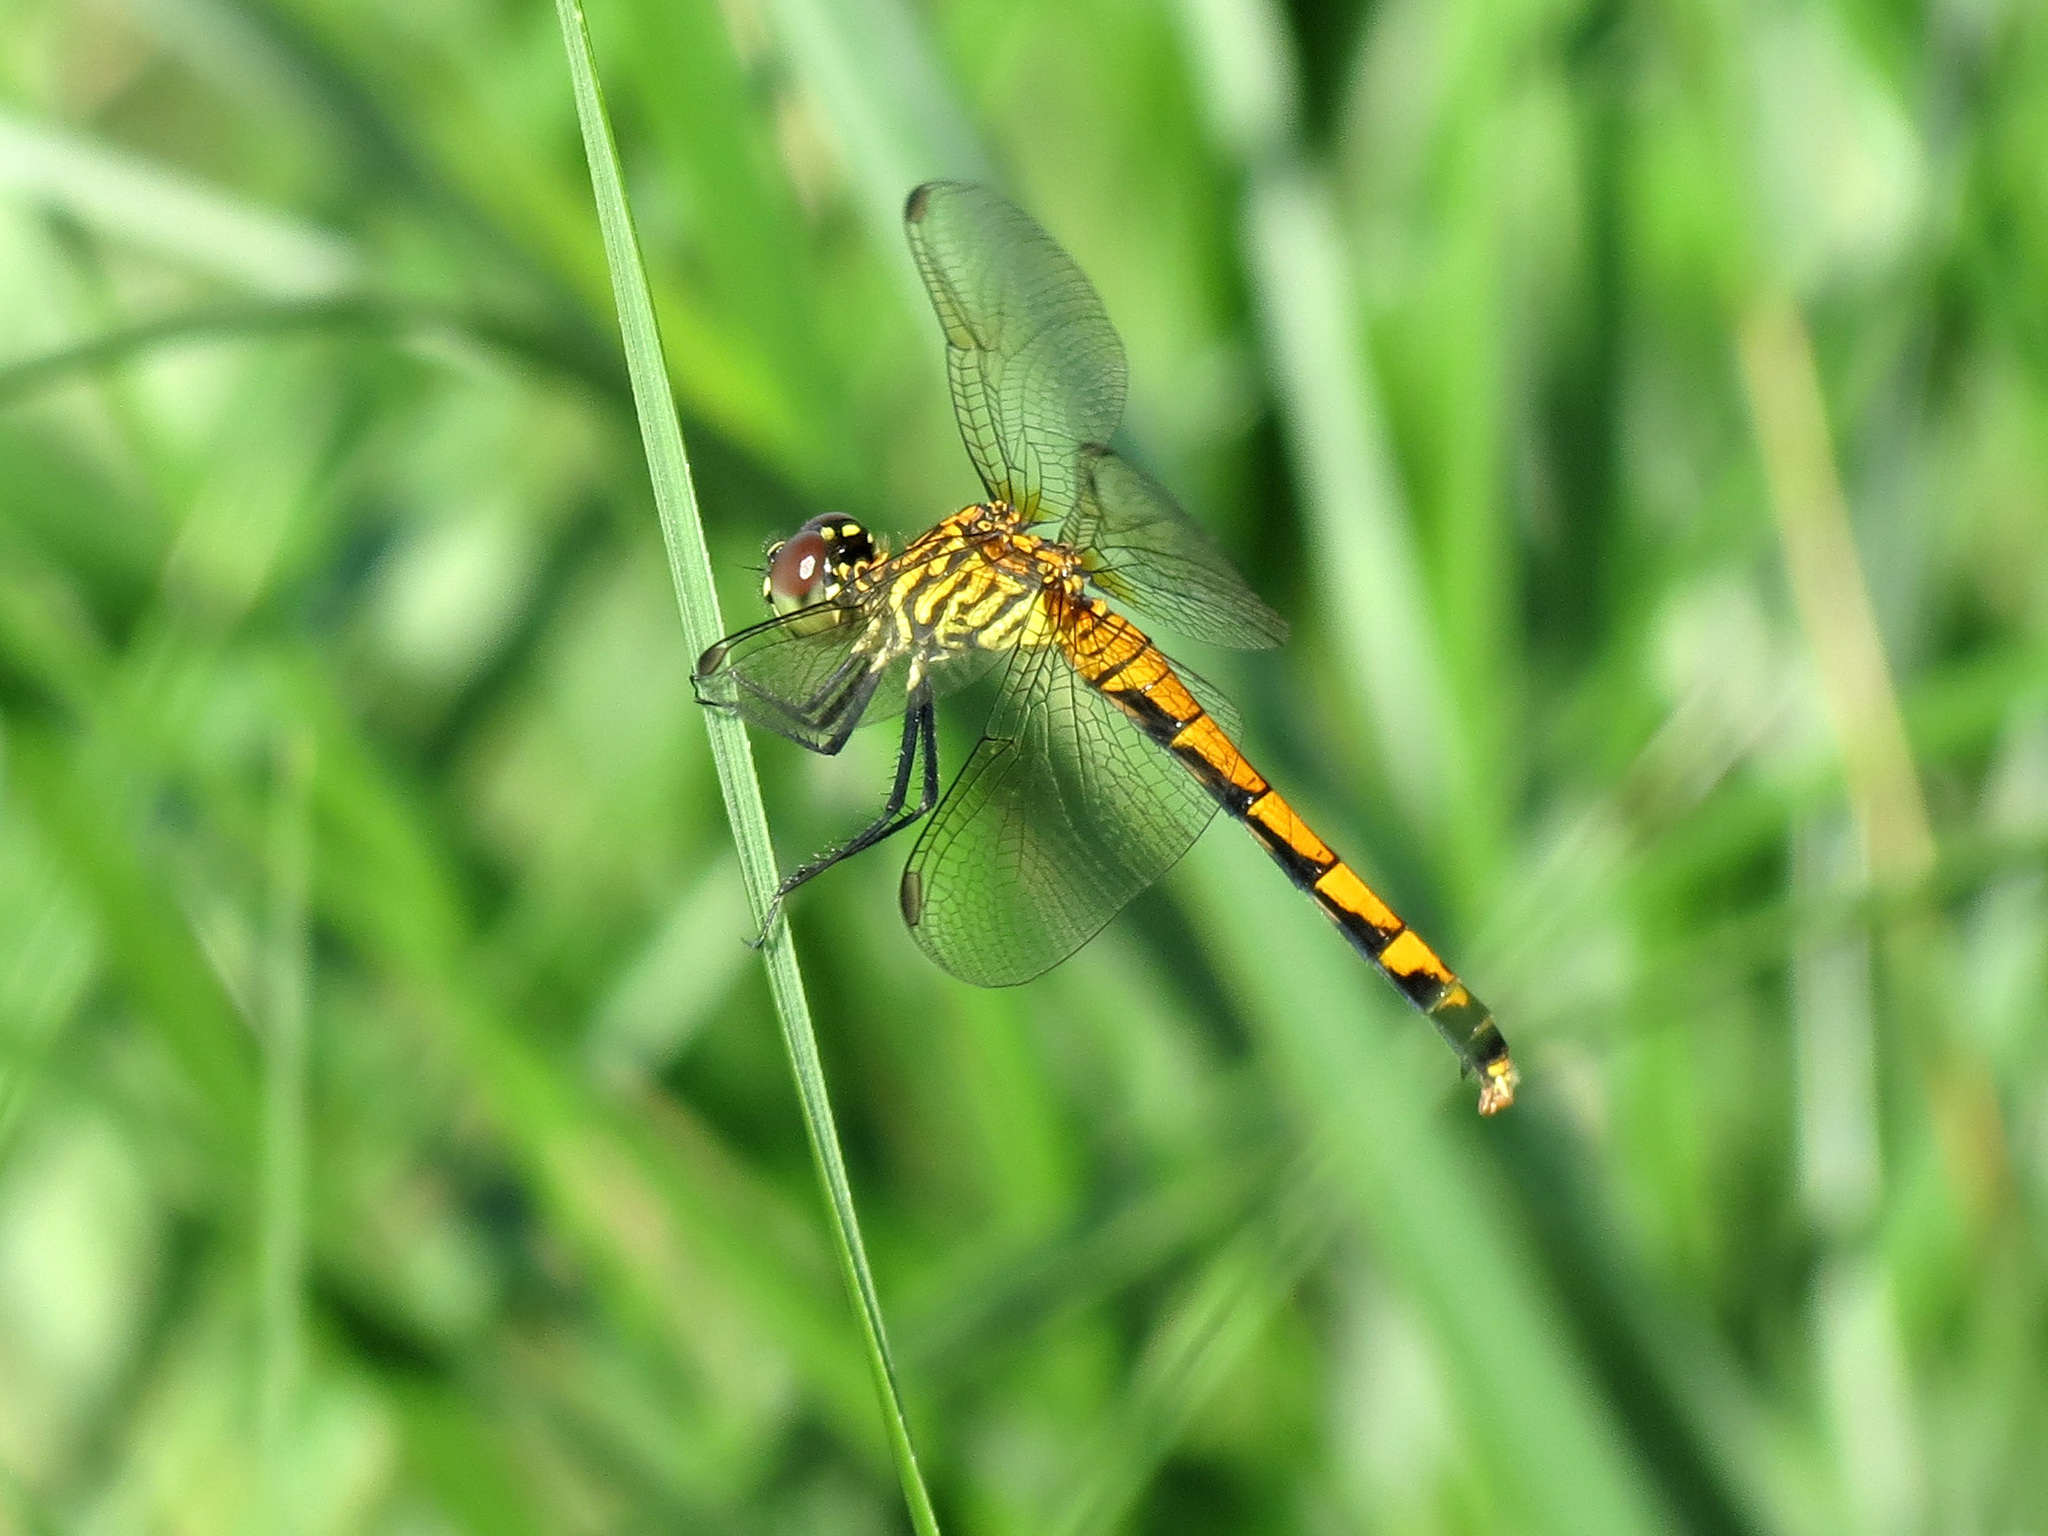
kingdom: Animalia
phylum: Arthropoda
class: Insecta
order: Odonata
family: Libellulidae
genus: Erythrodiplax
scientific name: Erythrodiplax berenice
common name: Seaside dragonlet
